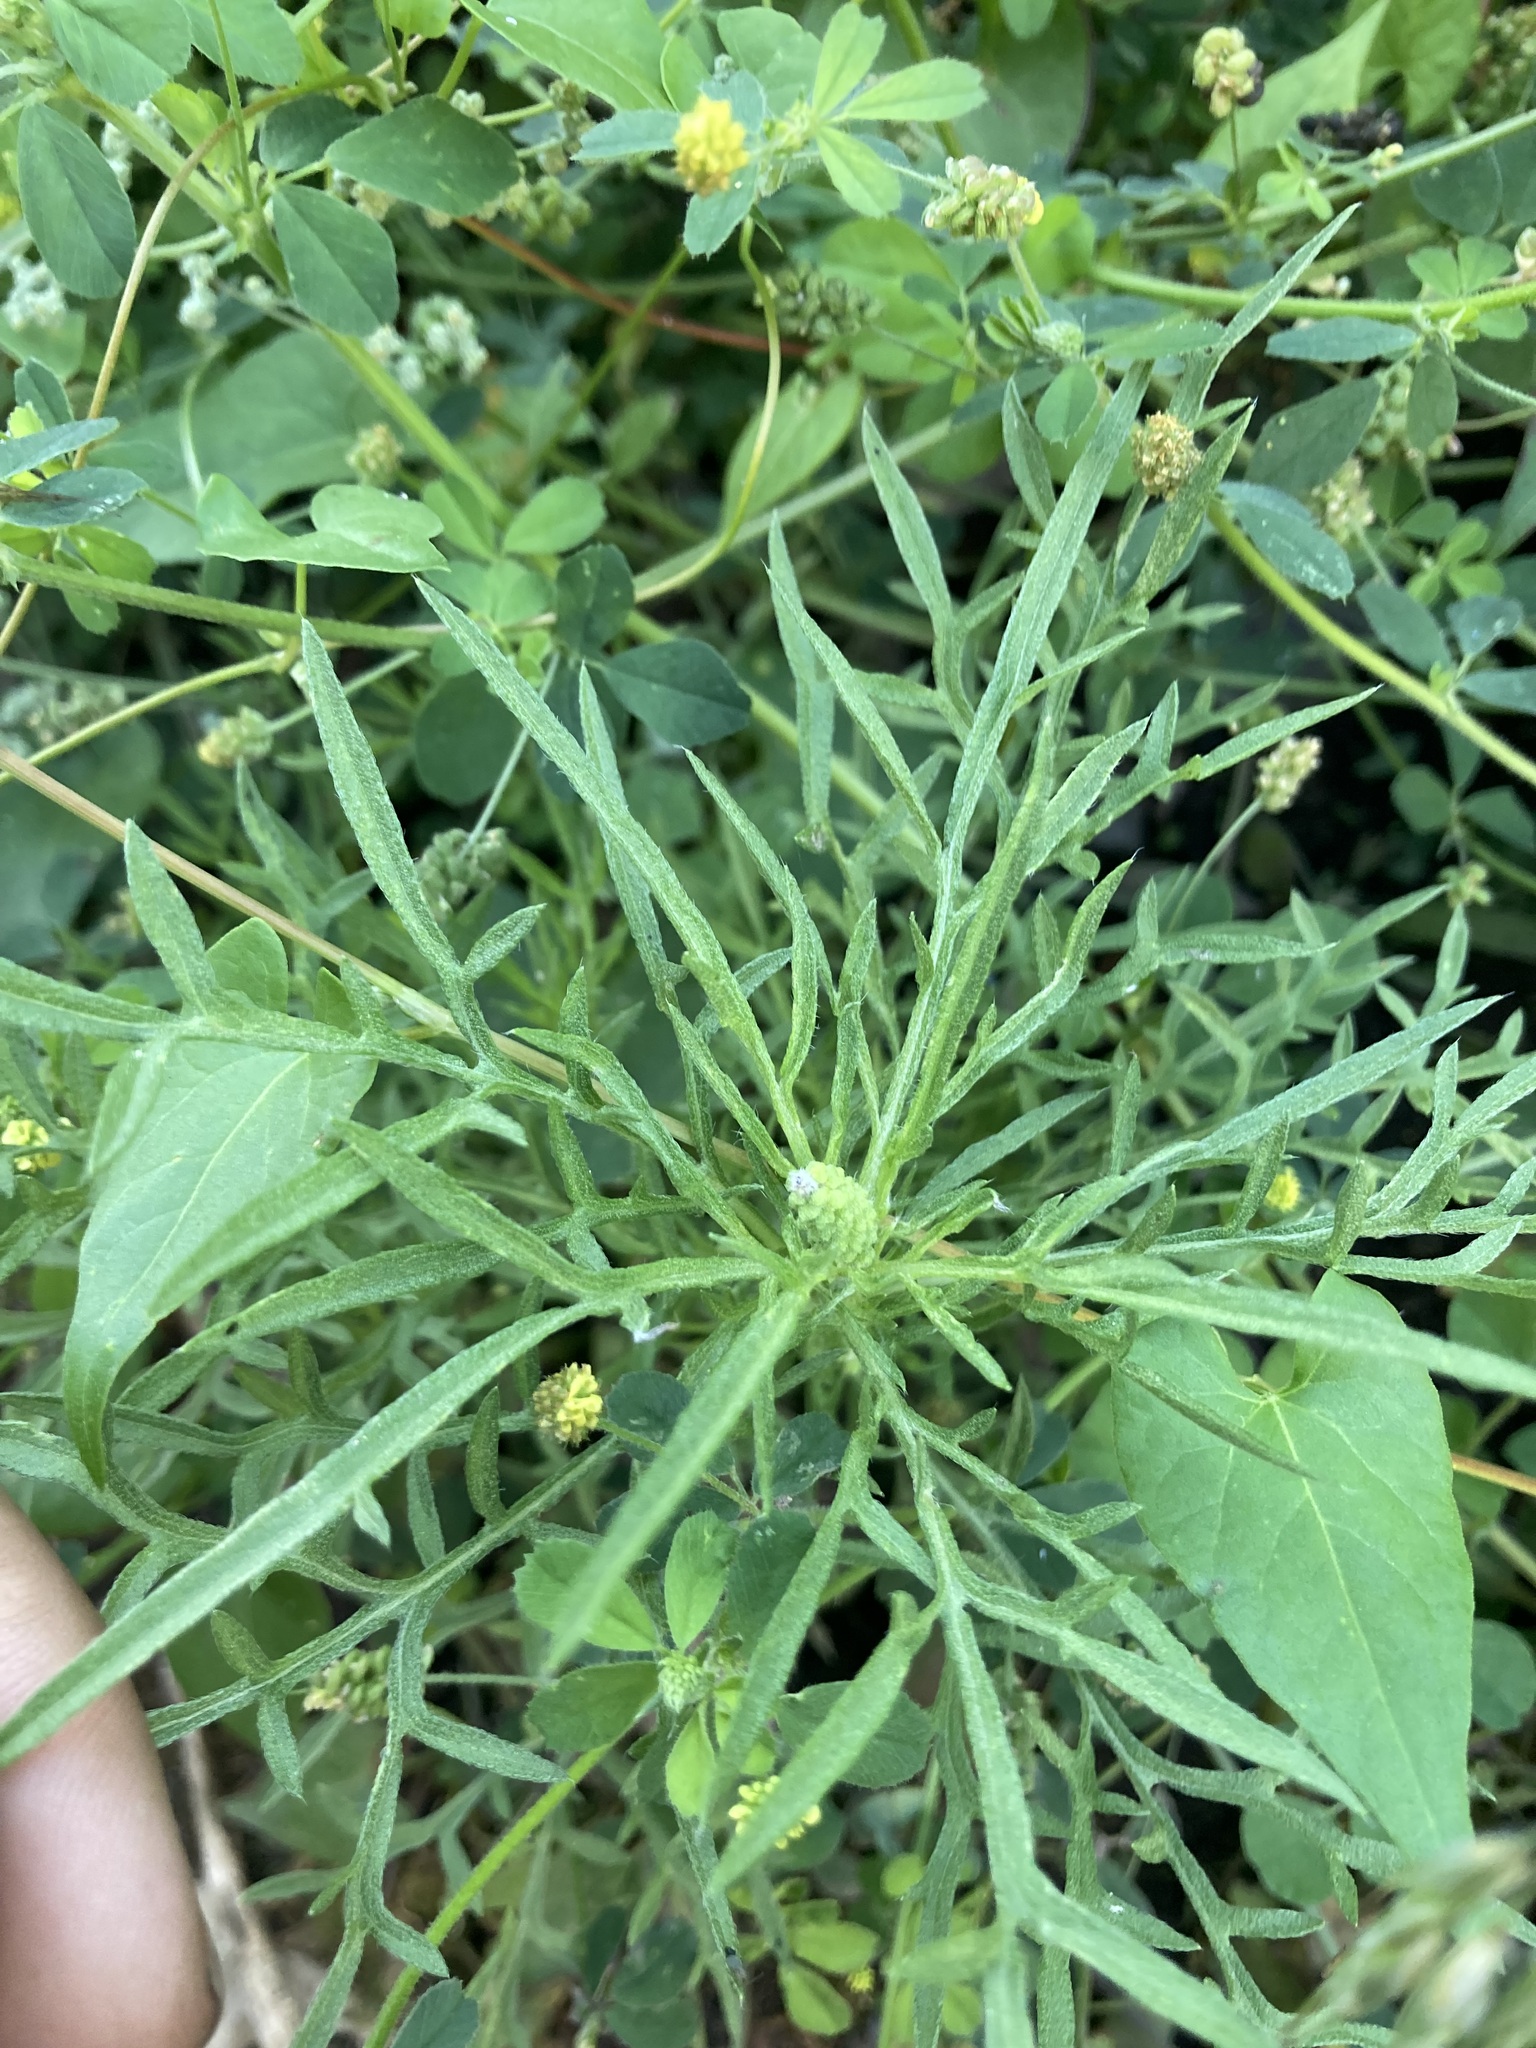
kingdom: Plantae
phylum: Tracheophyta
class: Magnoliopsida
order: Asterales
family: Asteraceae
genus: Cosmos
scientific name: Cosmos parviflorus
